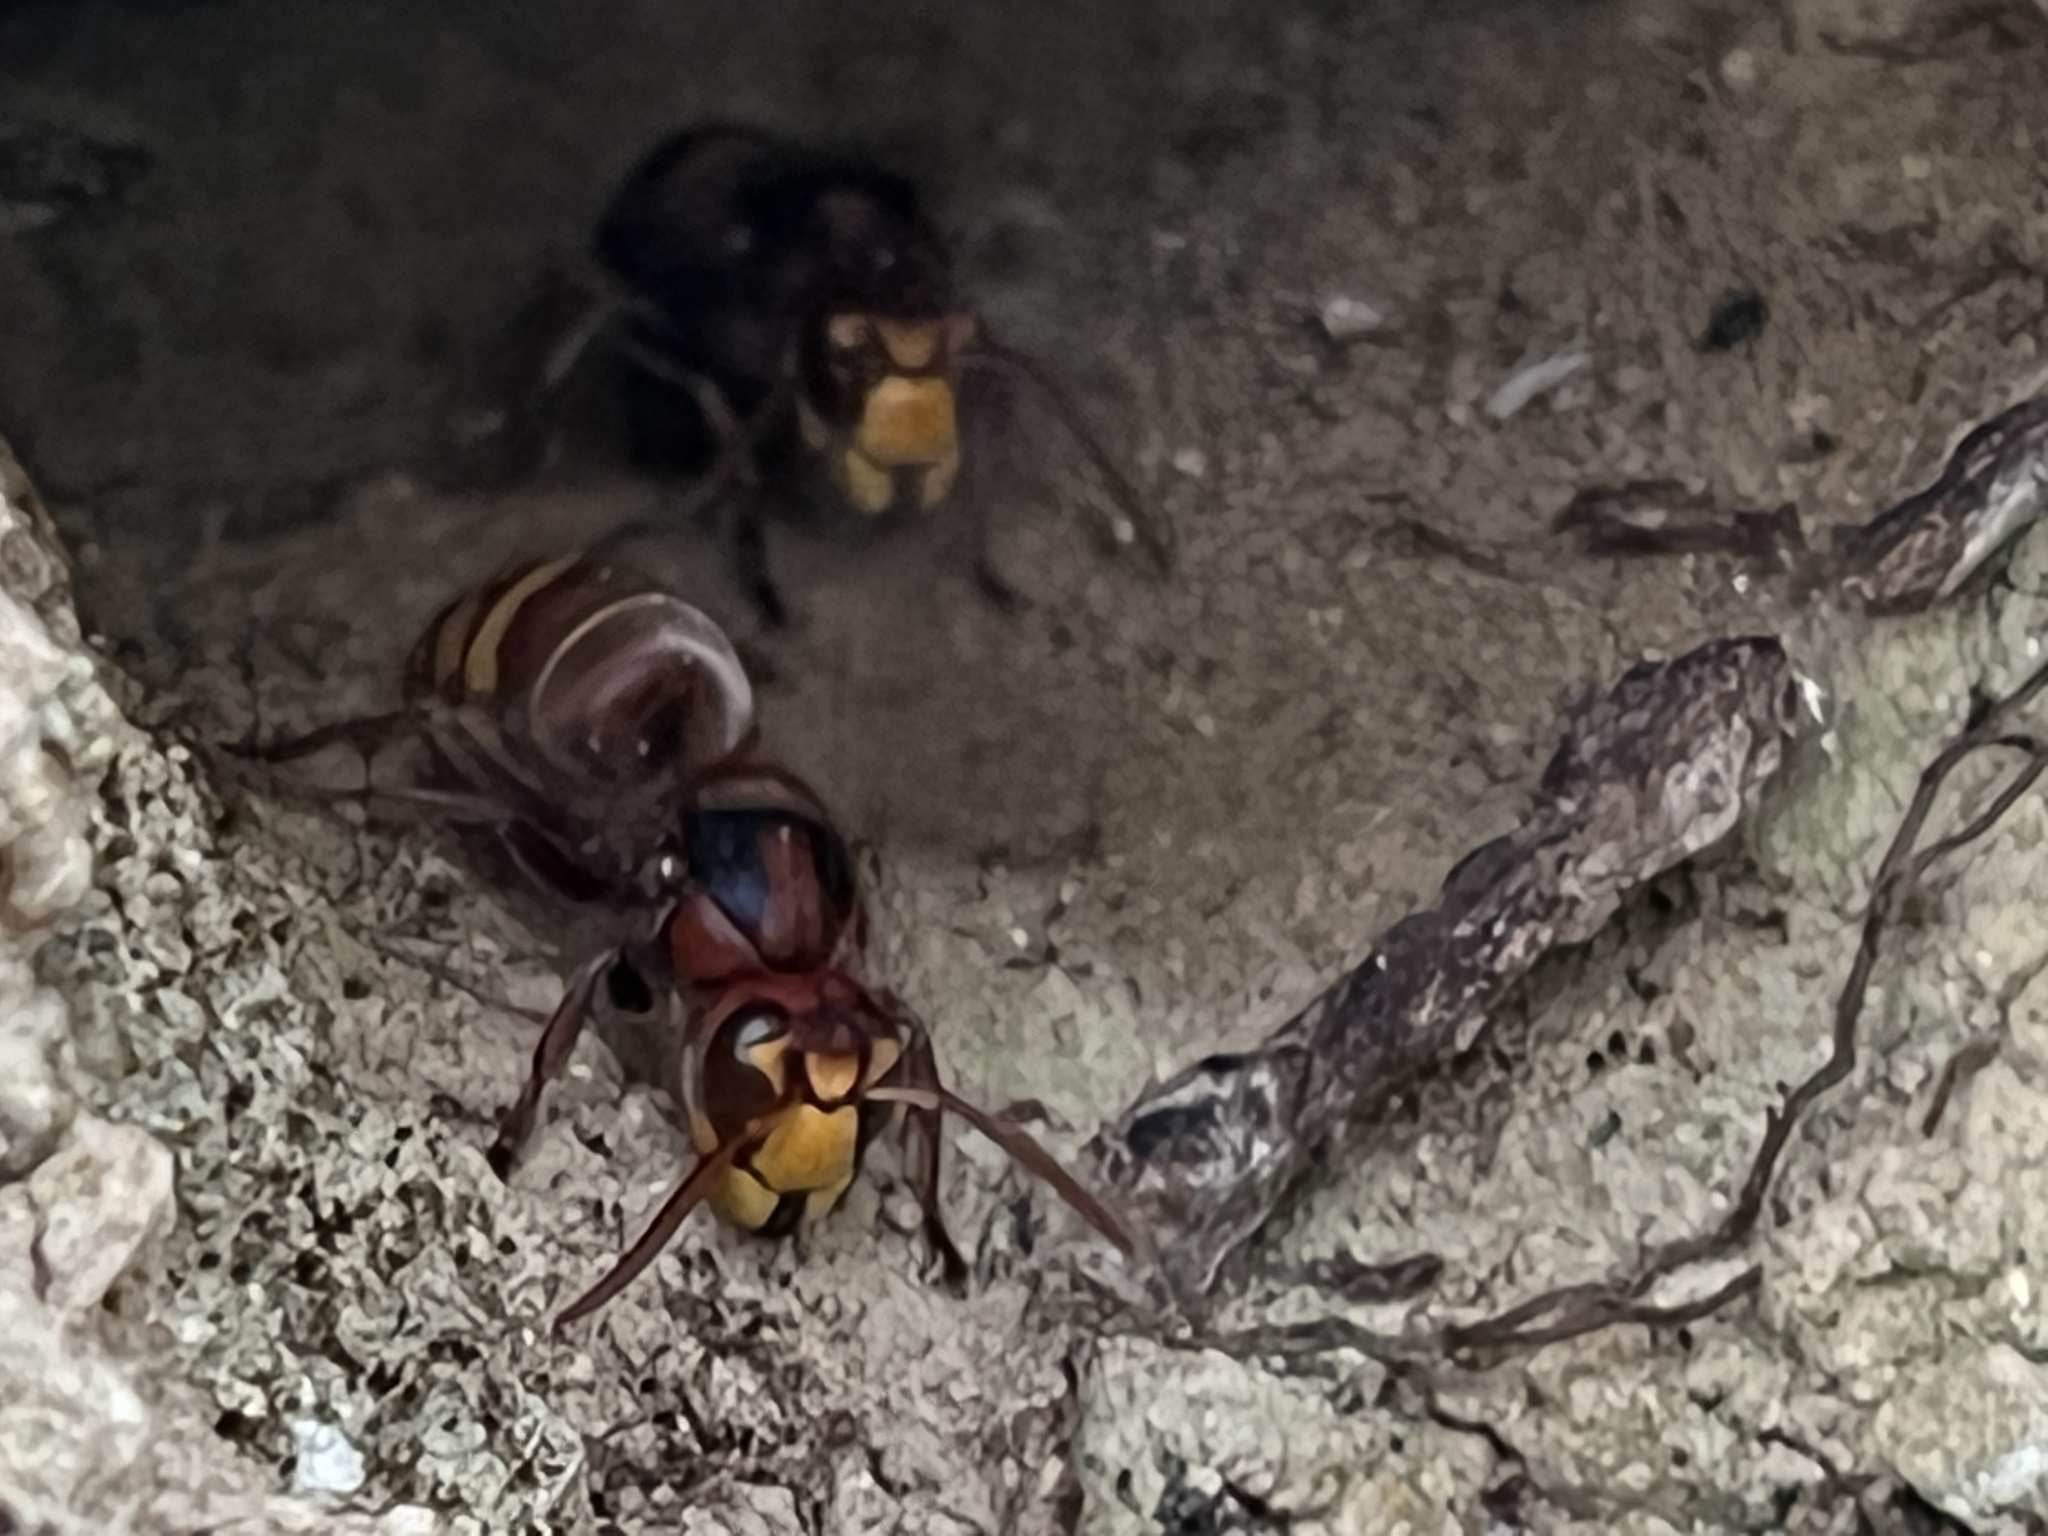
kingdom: Animalia
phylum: Arthropoda
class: Insecta
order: Hymenoptera
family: Vespidae
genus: Vespa
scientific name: Vespa crabro
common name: Hornet
